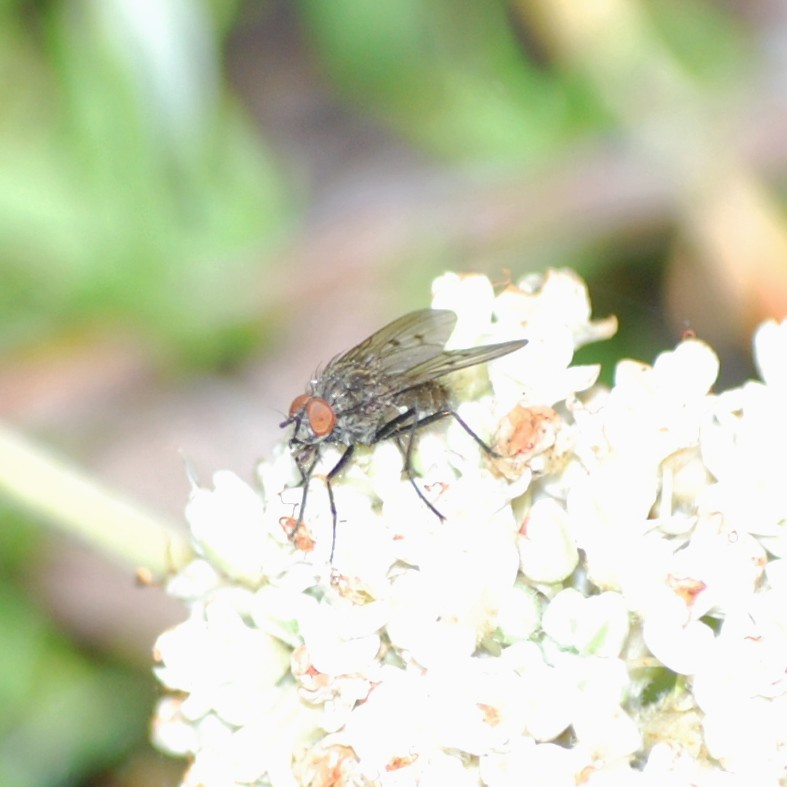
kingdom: Animalia
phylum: Arthropoda
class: Insecta
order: Diptera
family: Anthomyiidae
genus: Anthomyia
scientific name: Anthomyia ochripes
